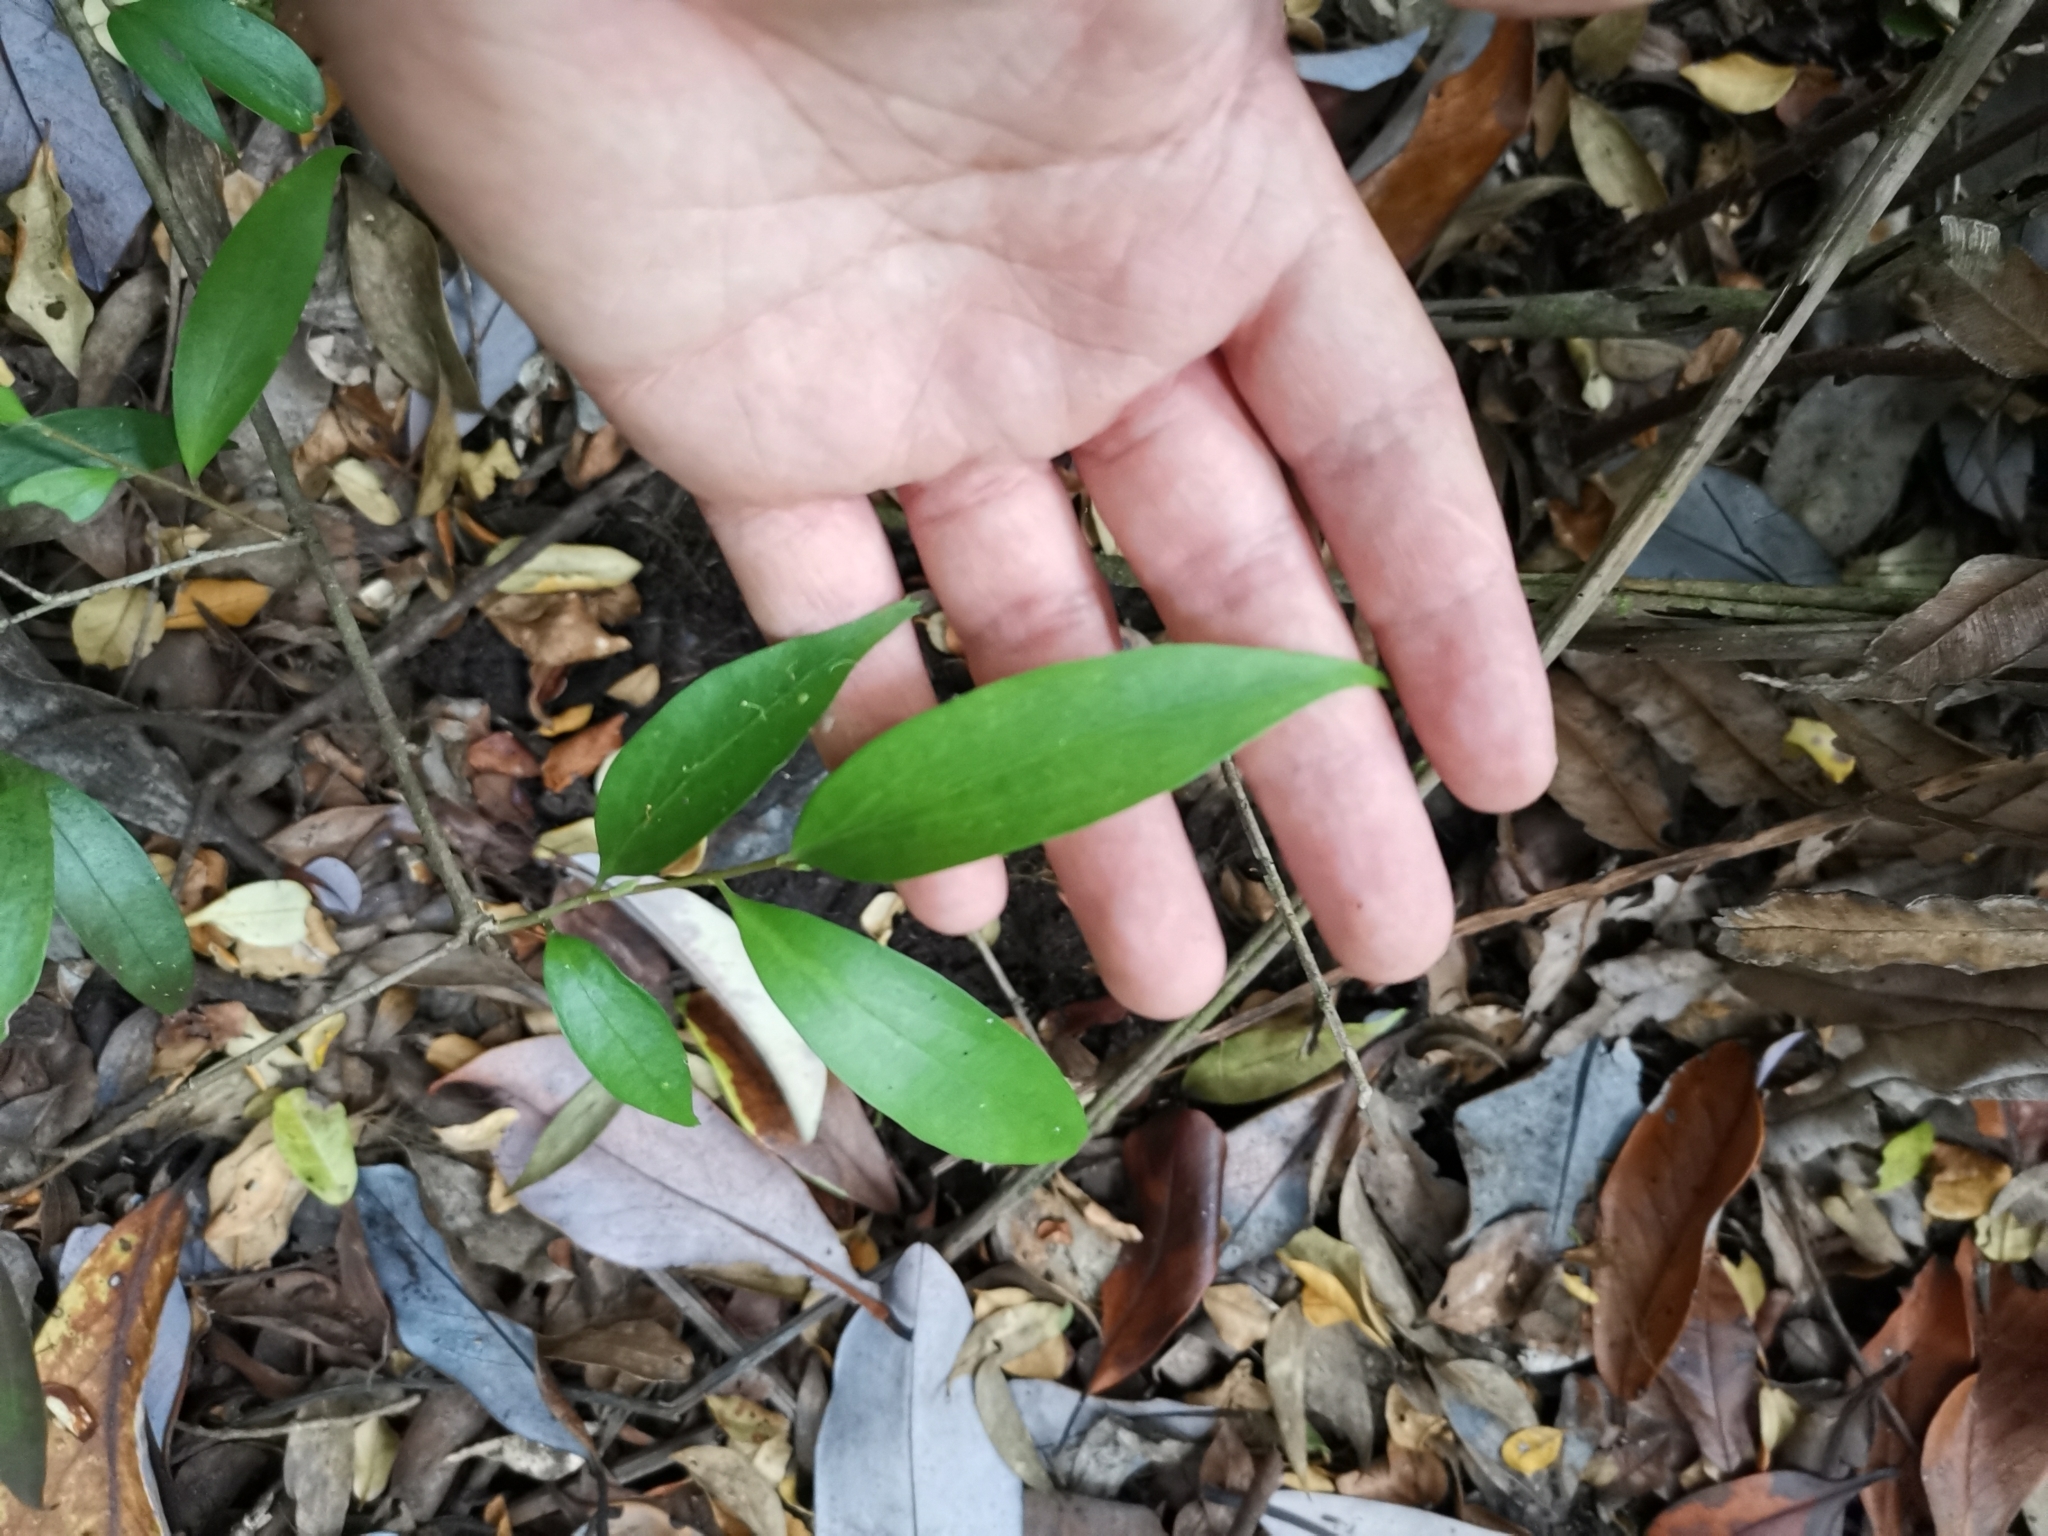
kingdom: Plantae
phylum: Tracheophyta
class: Magnoliopsida
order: Apiales
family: Griseliniaceae
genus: Griselinia
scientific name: Griselinia ruscifolia
